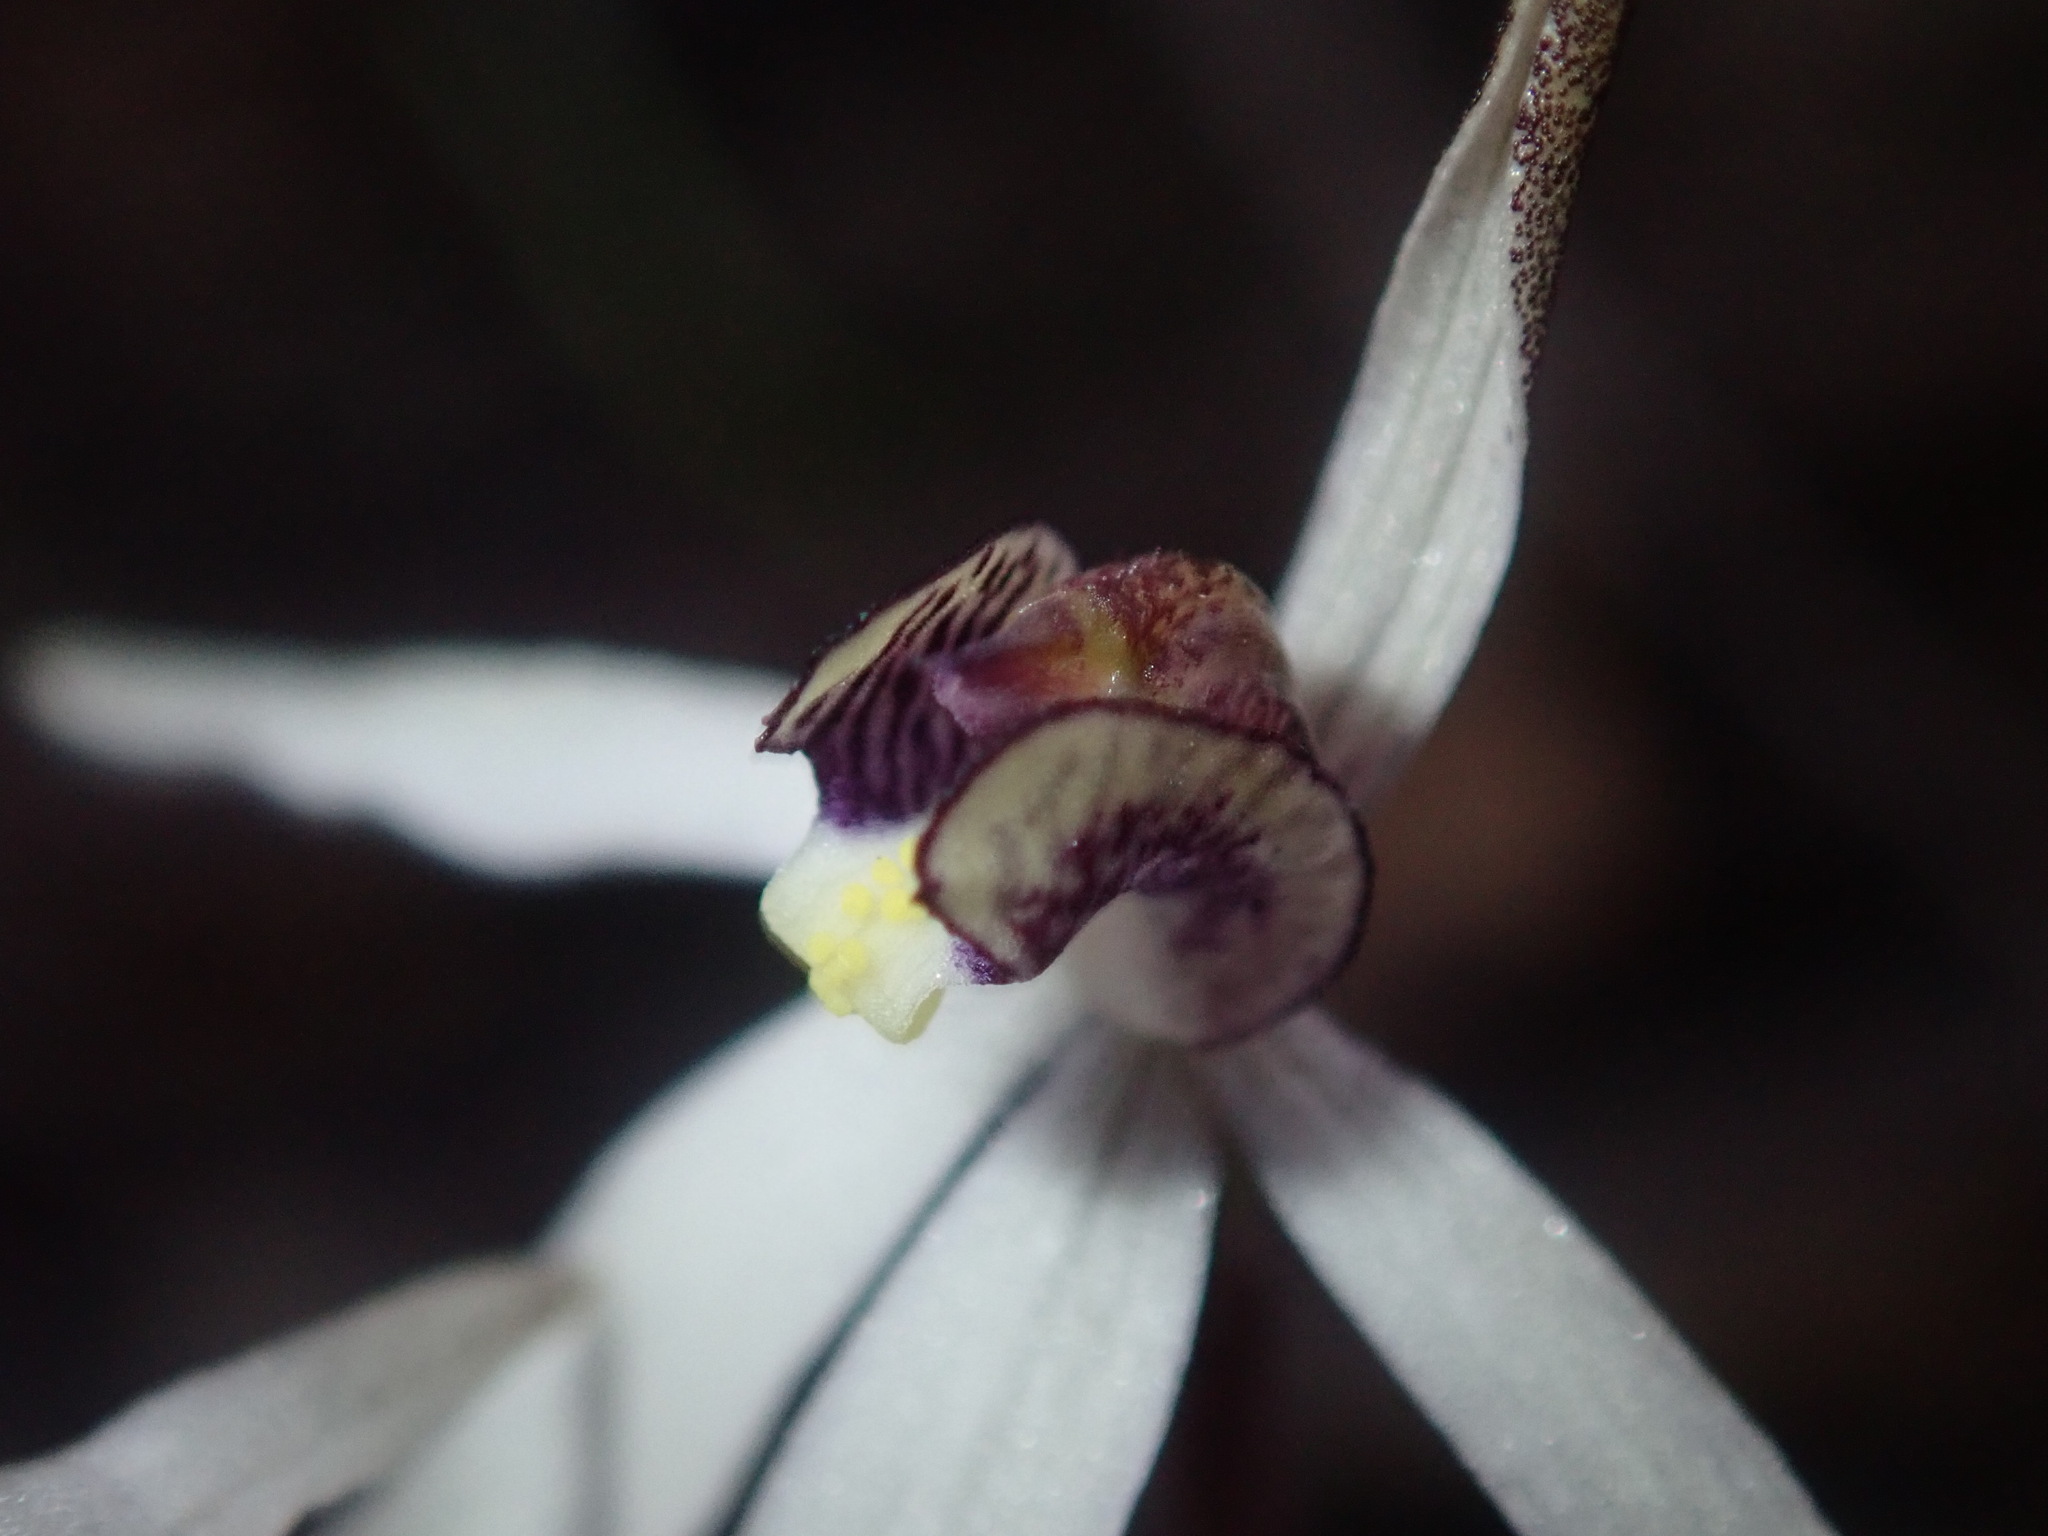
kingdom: Plantae
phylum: Tracheophyta
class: Liliopsida
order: Asparagales
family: Orchidaceae
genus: Caladenia
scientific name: Caladenia saccharata
